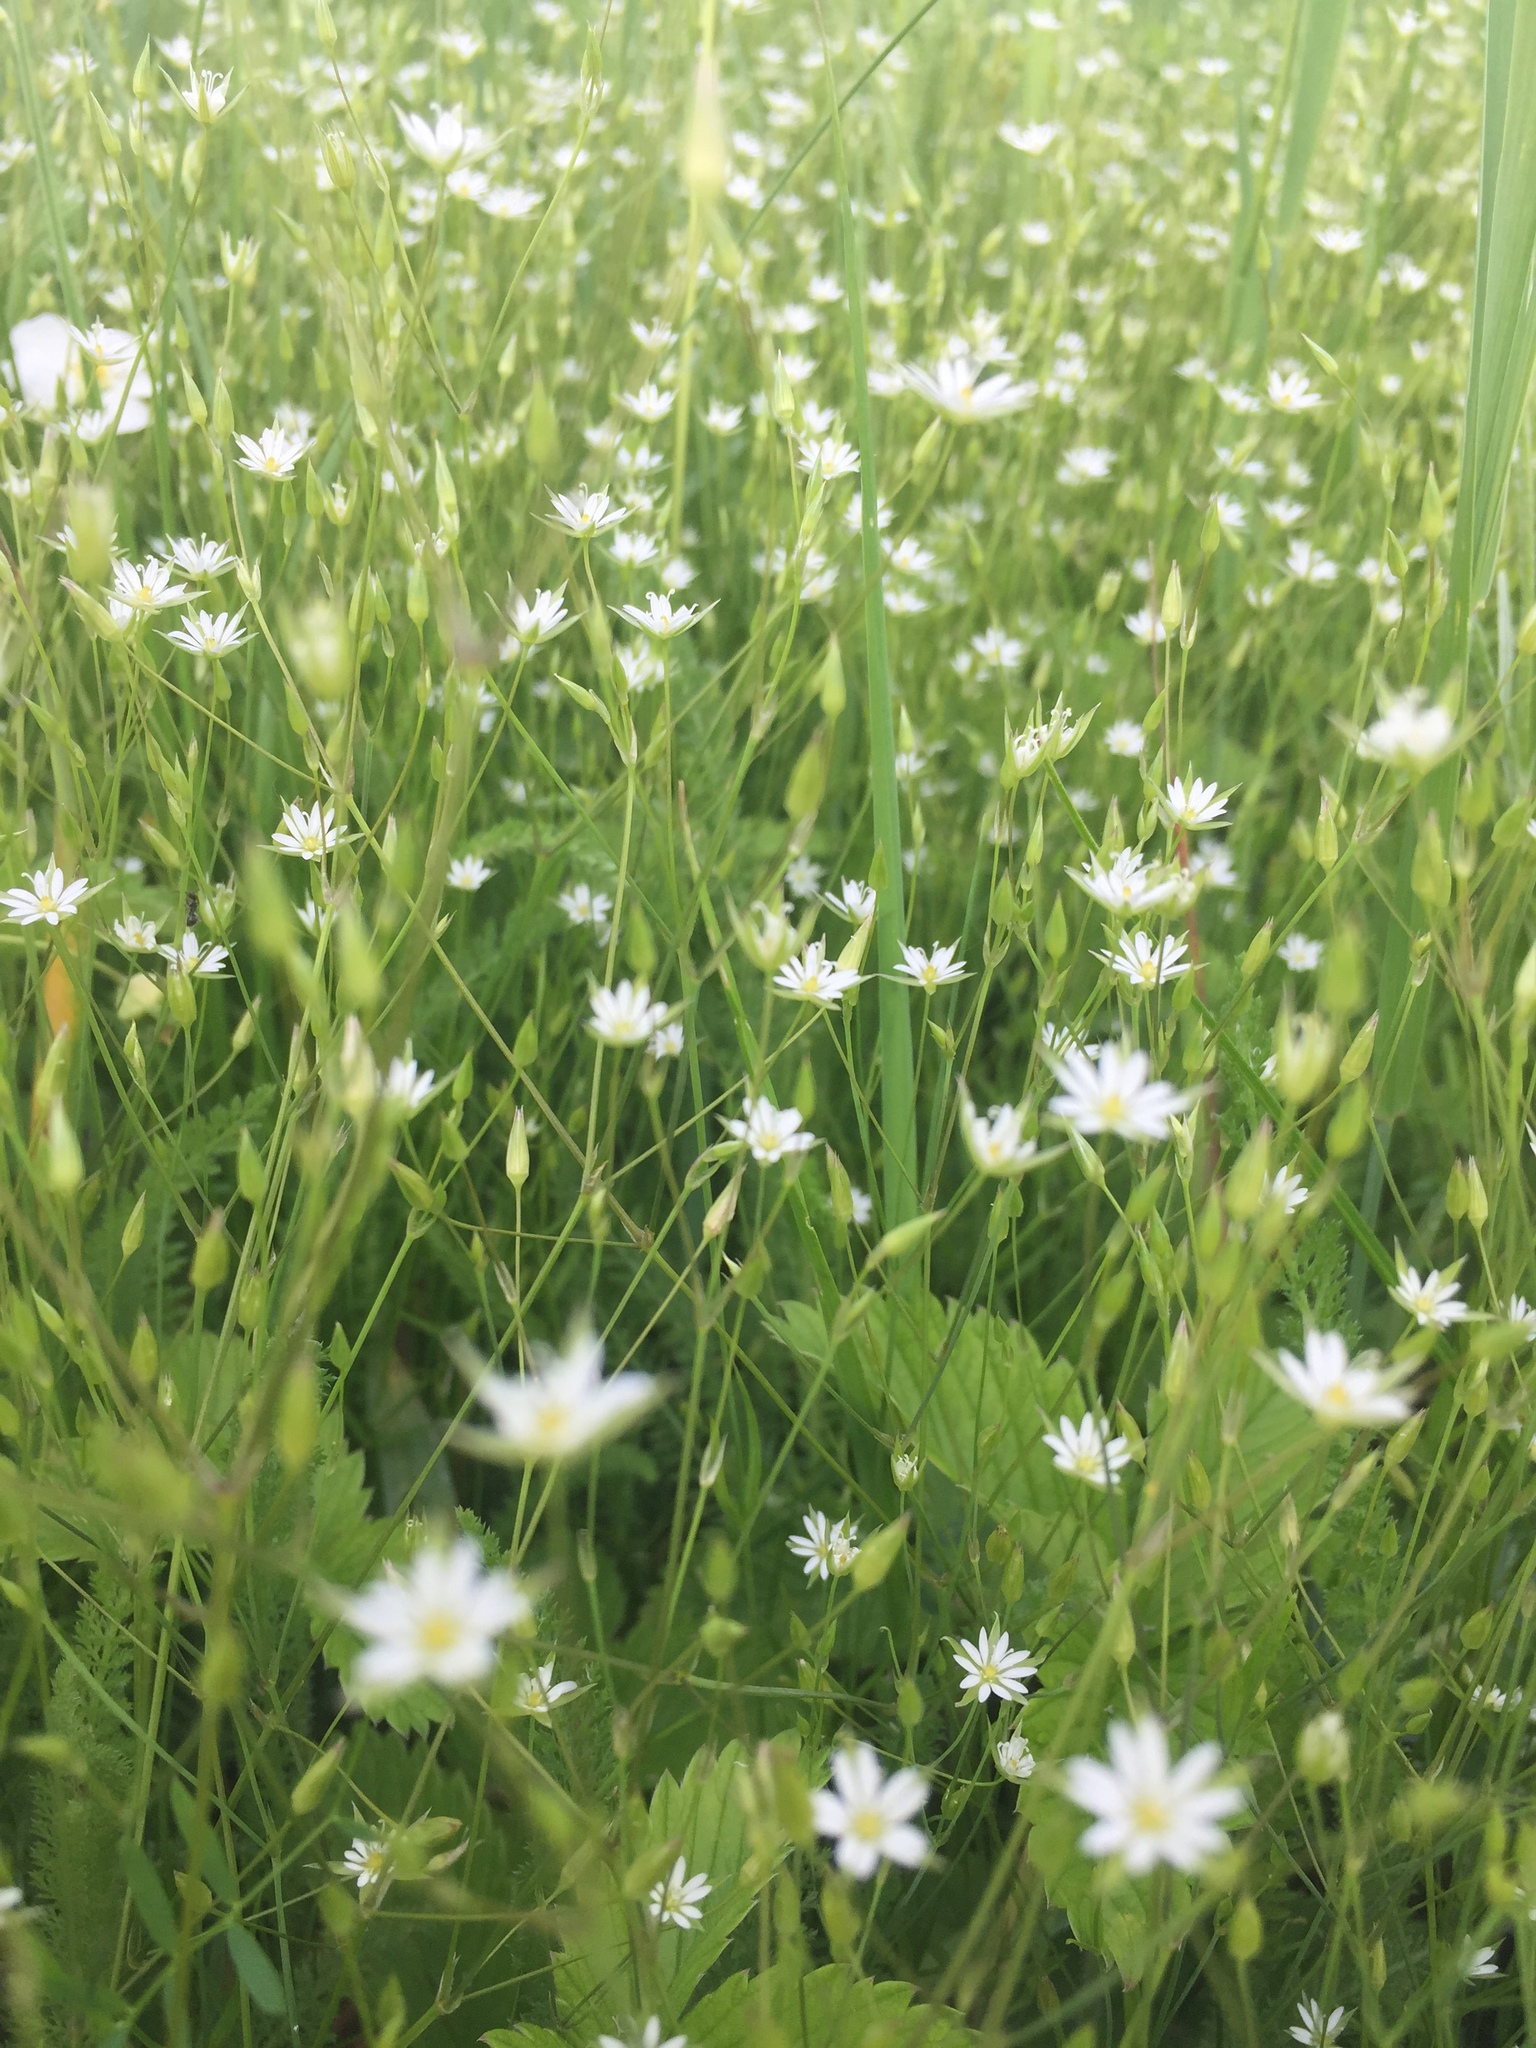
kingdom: Plantae
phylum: Tracheophyta
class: Magnoliopsida
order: Caryophyllales
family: Caryophyllaceae
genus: Stellaria
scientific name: Stellaria graminea
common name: Grass-like starwort
